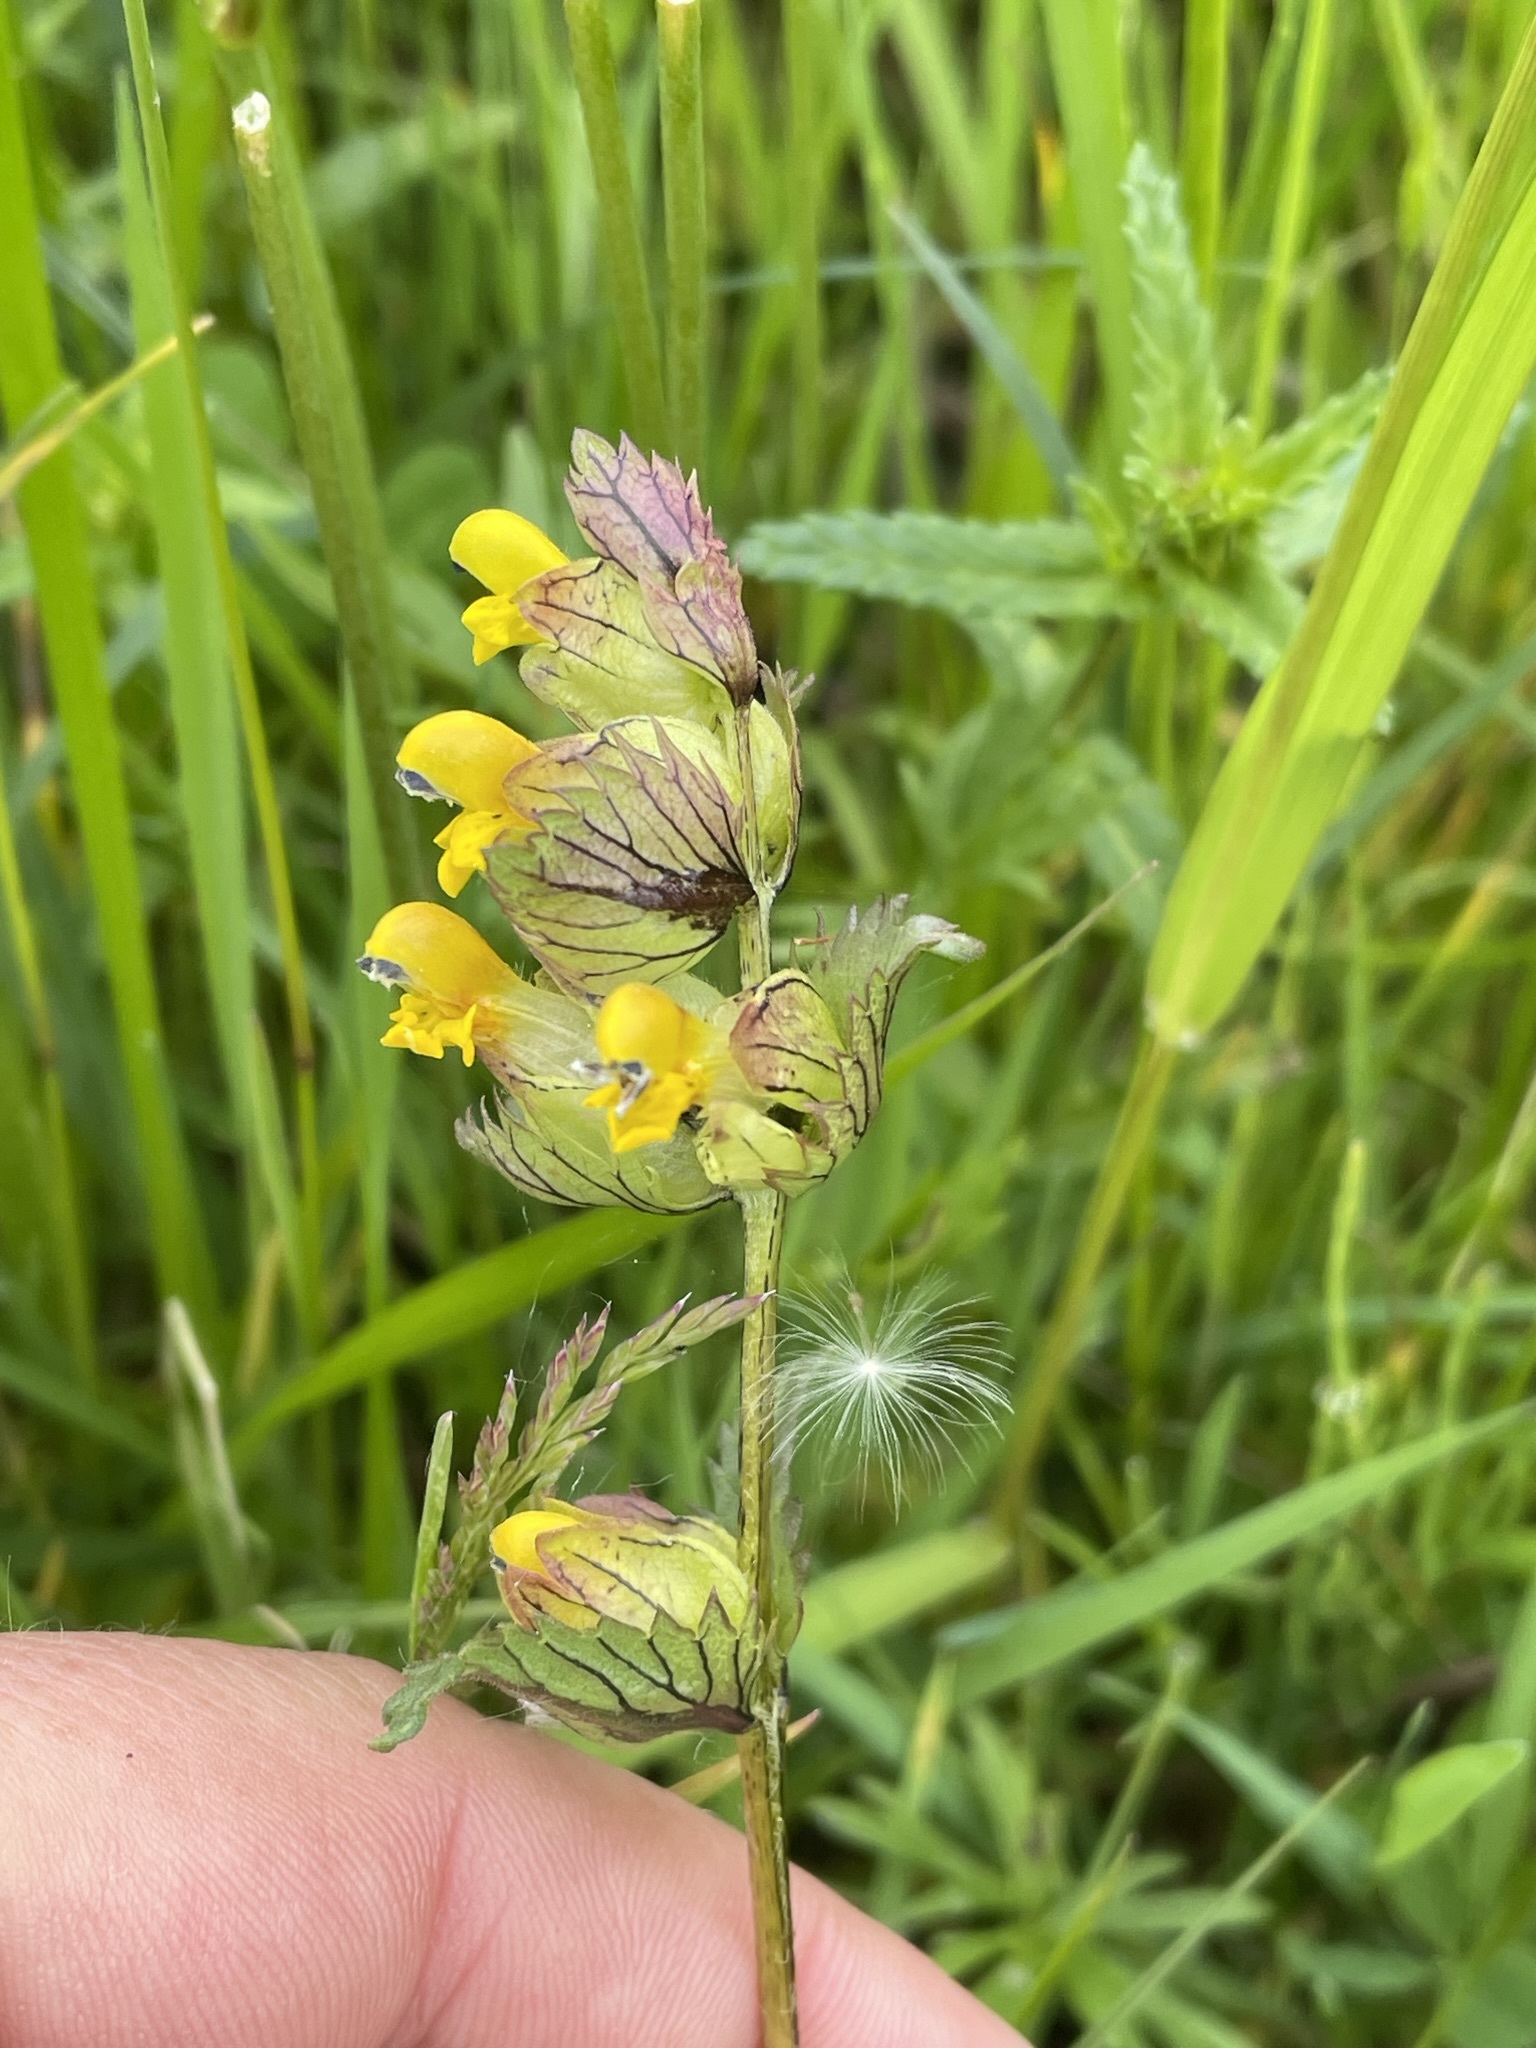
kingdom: Plantae
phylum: Tracheophyta
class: Magnoliopsida
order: Lamiales
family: Orobanchaceae
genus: Rhinanthus
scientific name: Rhinanthus minor
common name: Yellow-rattle
